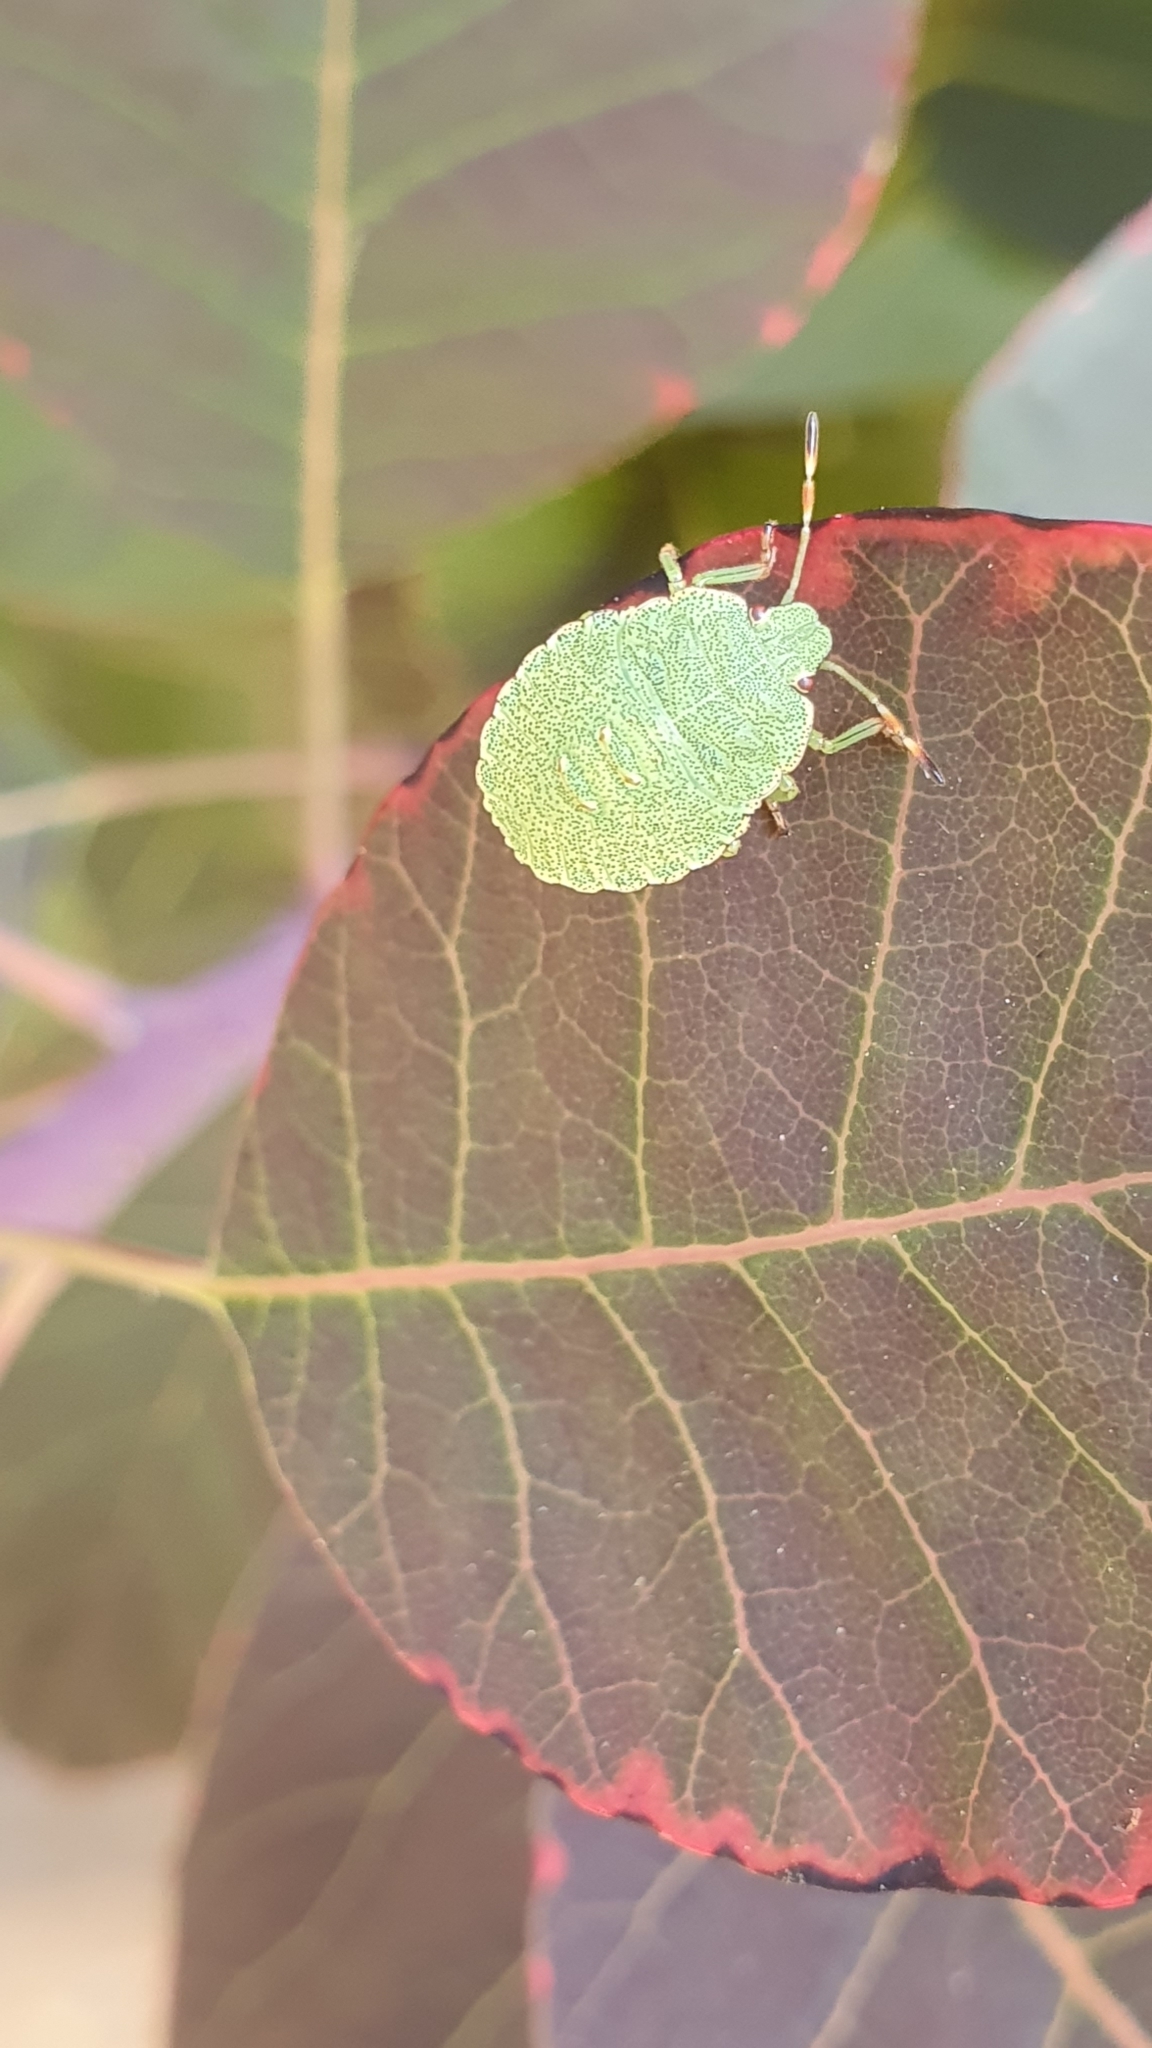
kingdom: Animalia
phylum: Arthropoda
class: Insecta
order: Hemiptera
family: Pentatomidae
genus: Palomena
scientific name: Palomena prasina
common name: Green shieldbug
